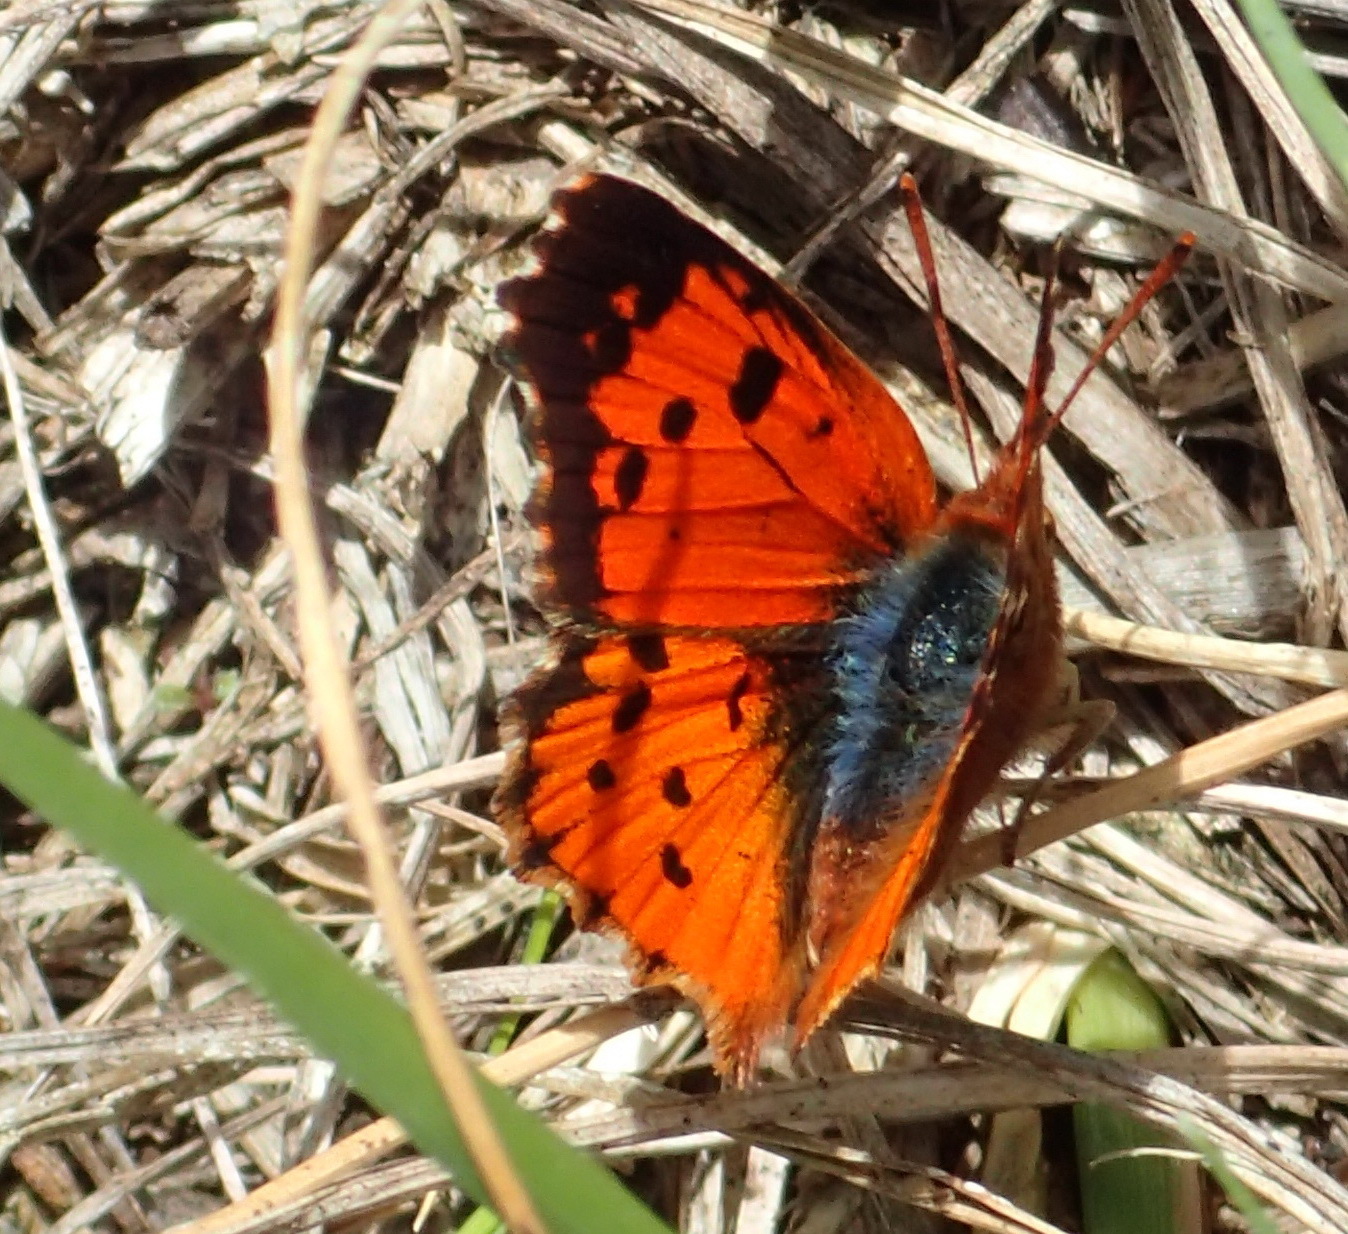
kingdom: Animalia
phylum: Arthropoda
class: Insecta
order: Lepidoptera
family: Lycaenidae
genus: Chrysoritis
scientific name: Chrysoritis
